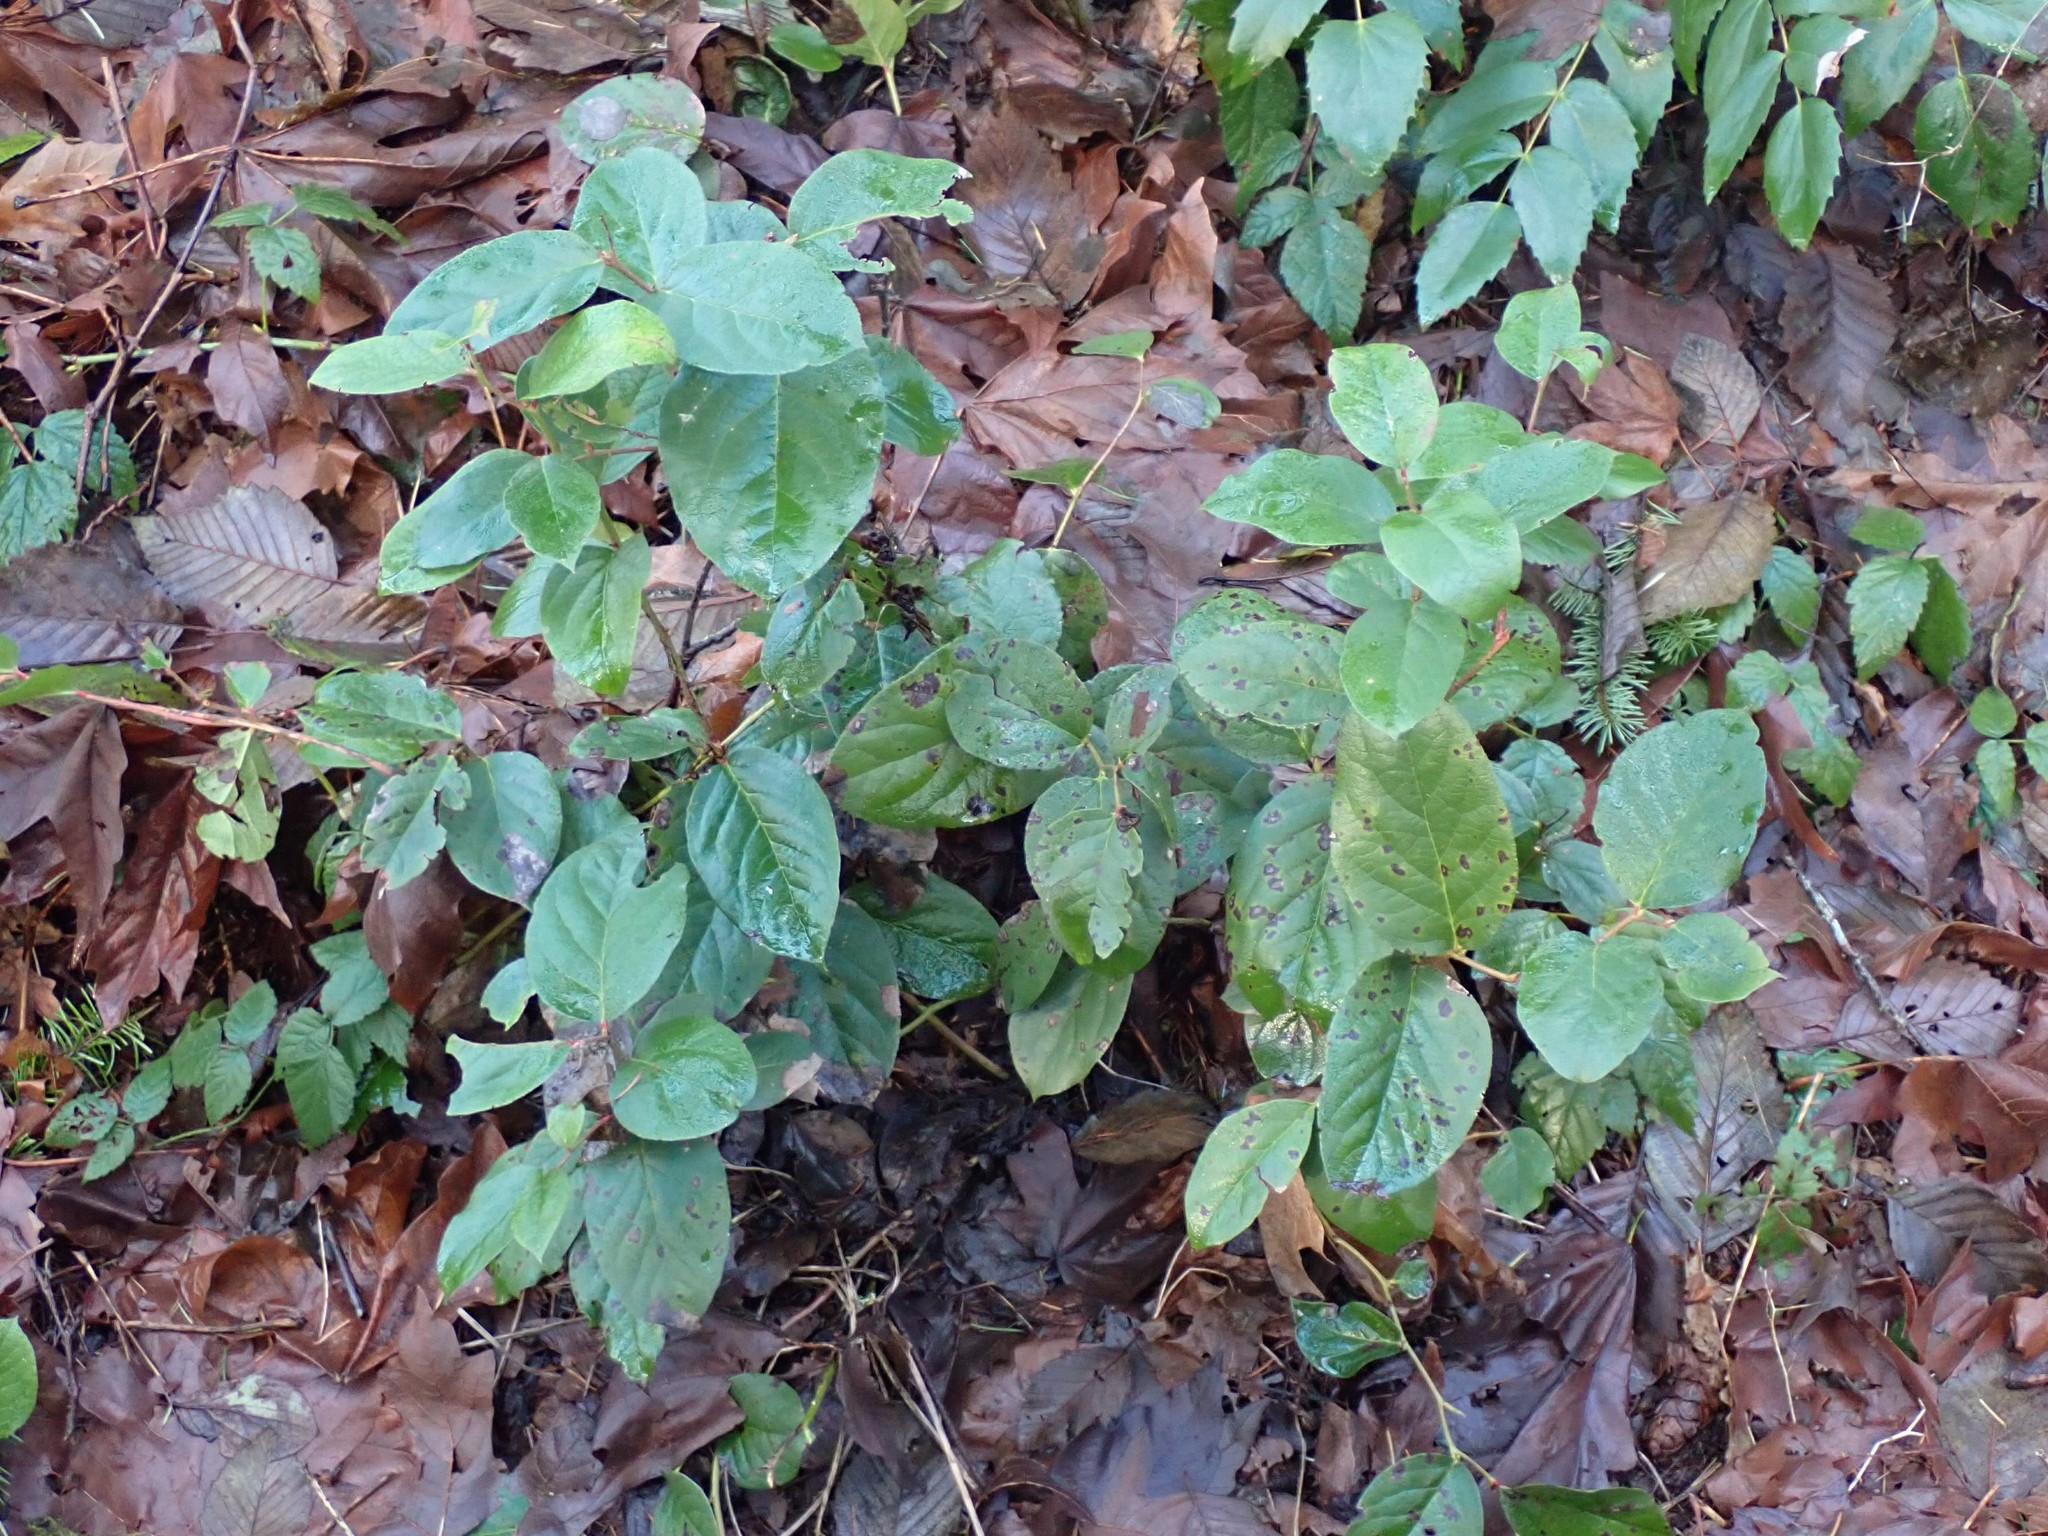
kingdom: Plantae
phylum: Tracheophyta
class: Magnoliopsida
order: Ericales
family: Ericaceae
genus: Gaultheria
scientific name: Gaultheria shallon
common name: Shallon
